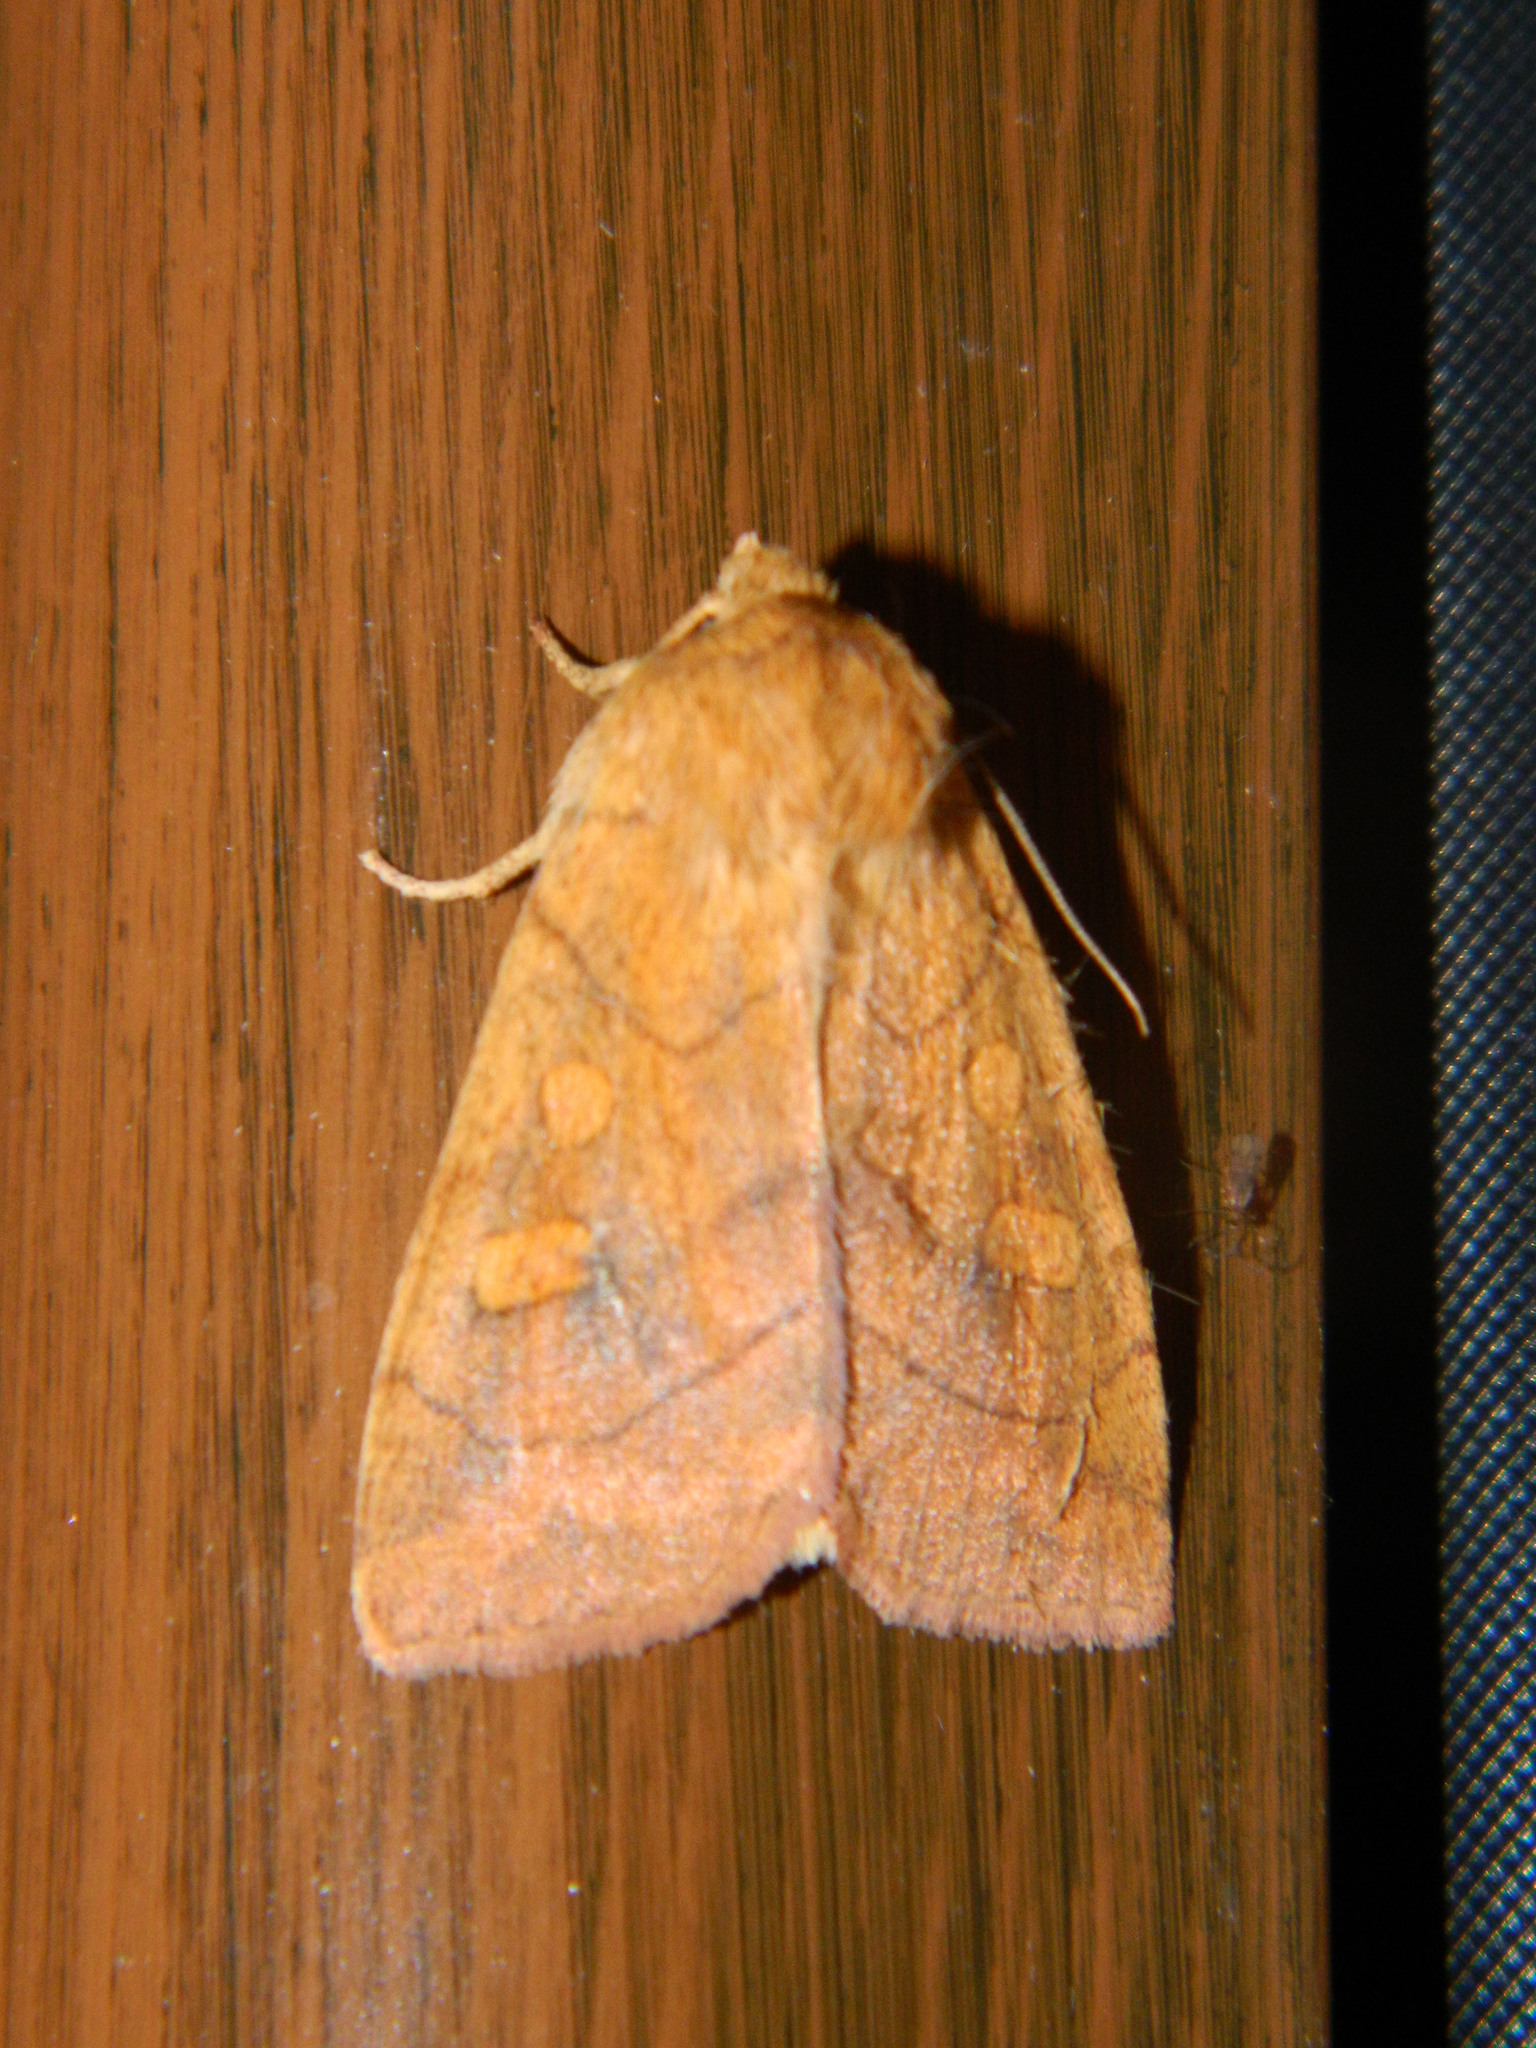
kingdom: Animalia
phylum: Arthropoda
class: Insecta
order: Lepidoptera
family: Noctuidae
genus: Enargia
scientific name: Enargia decolor
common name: Aspen twoleaf tier moth
